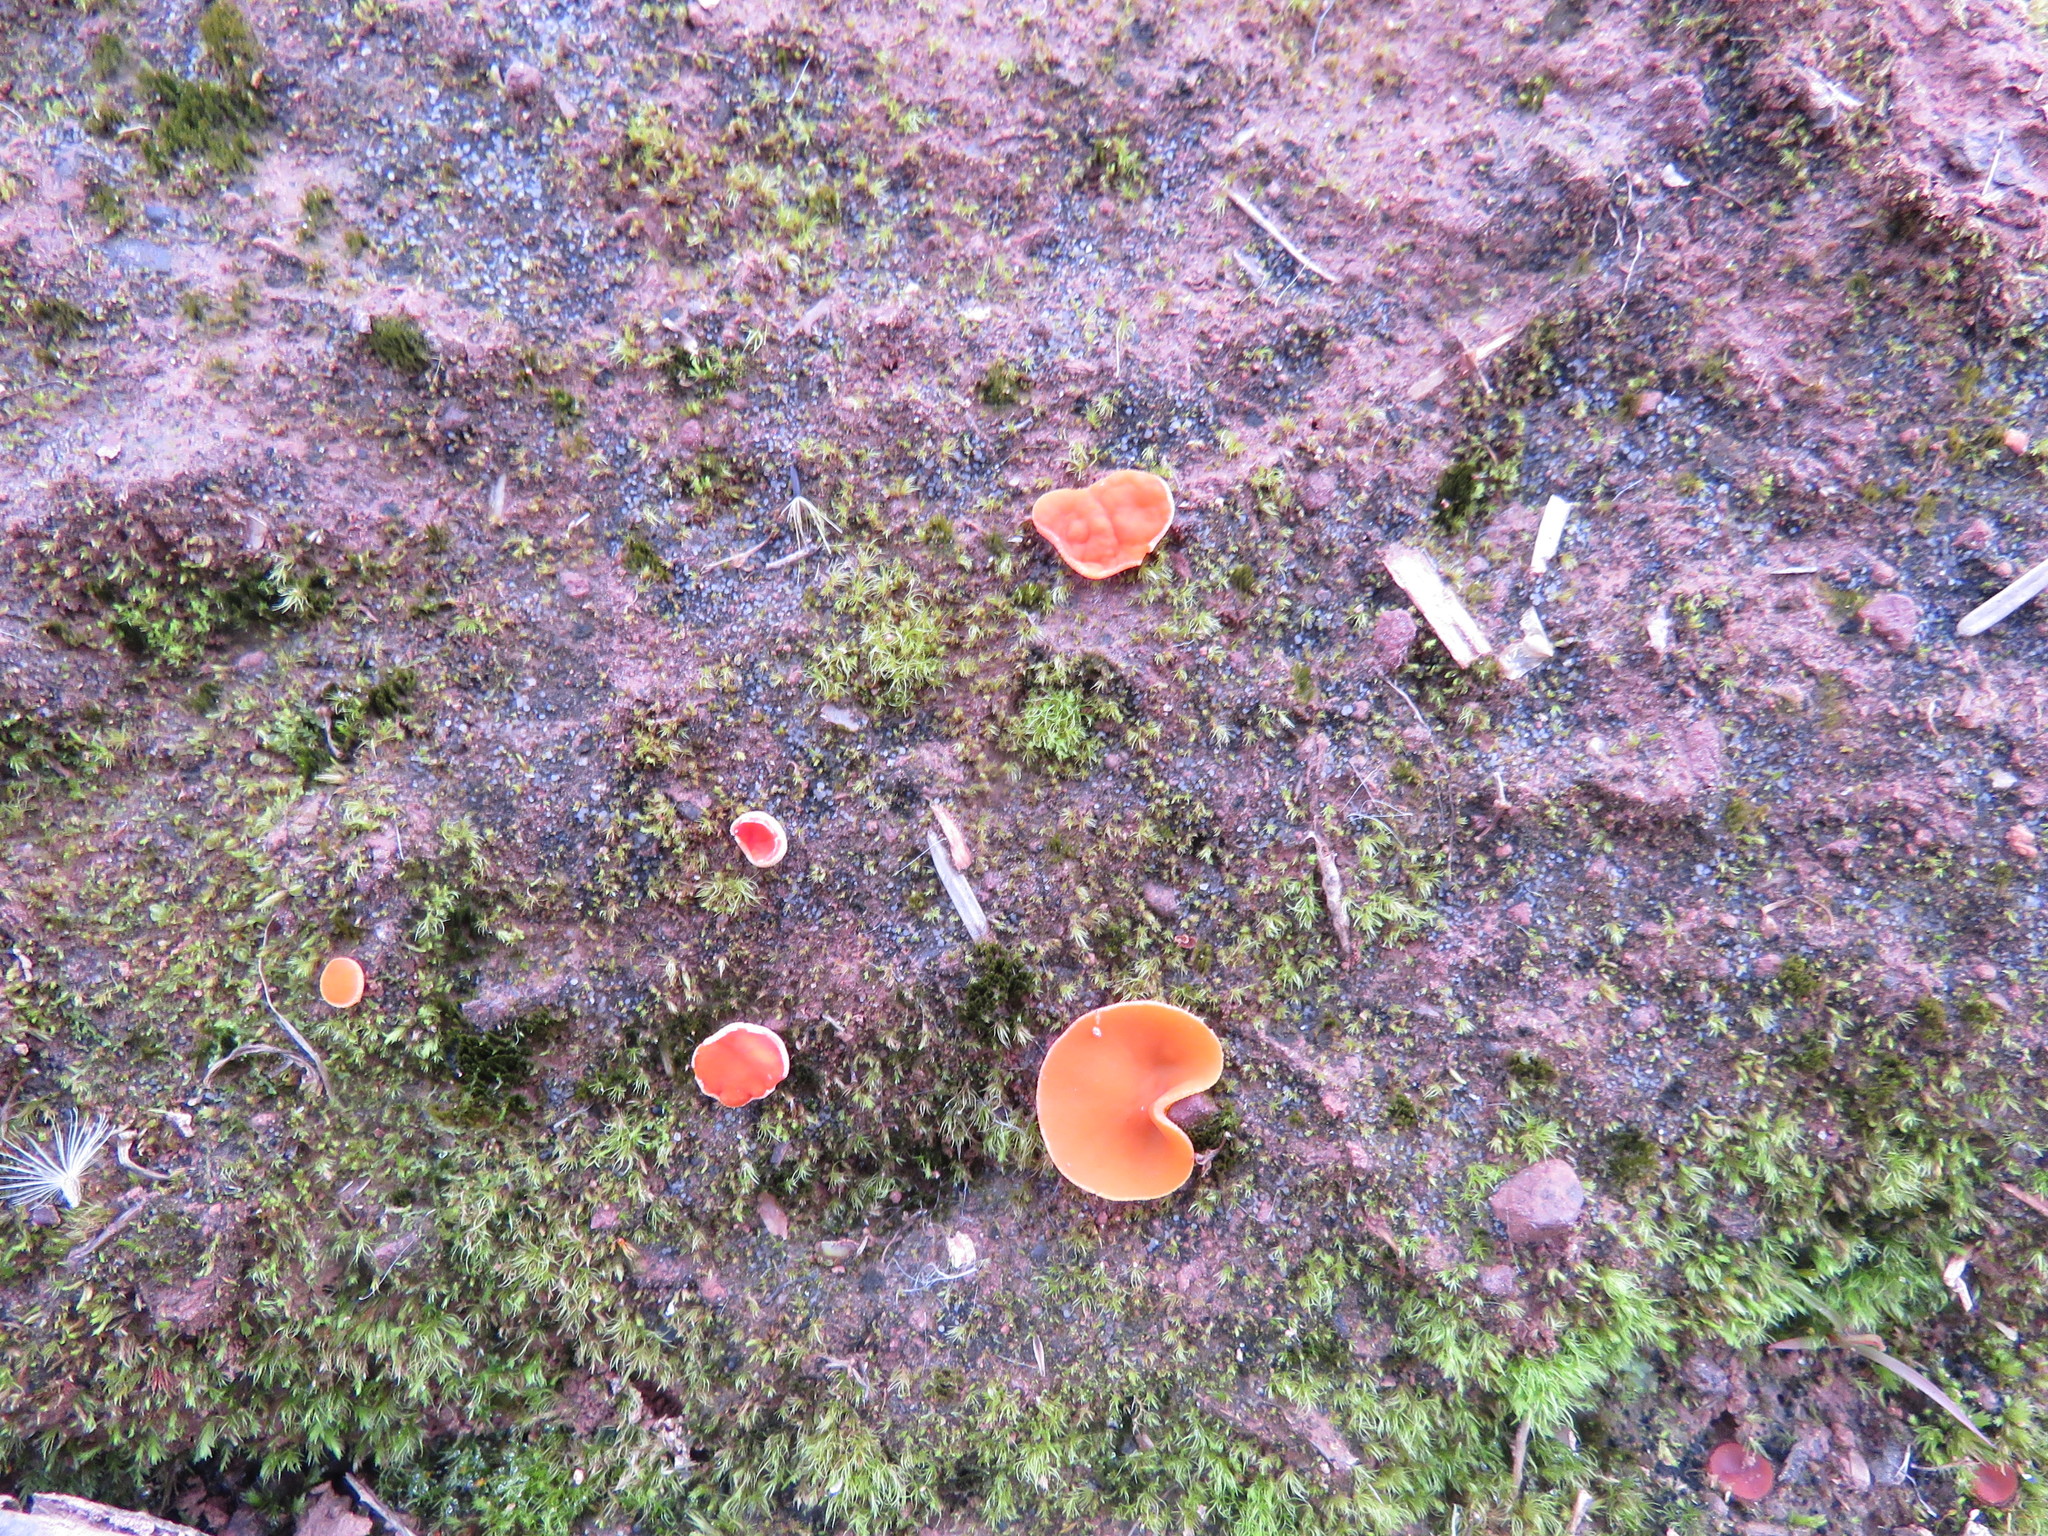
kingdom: Fungi
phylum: Ascomycota
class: Pezizomycetes
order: Pezizales
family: Pyronemataceae
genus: Aleuria
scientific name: Aleuria aurantia
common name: Orange peel fungus
